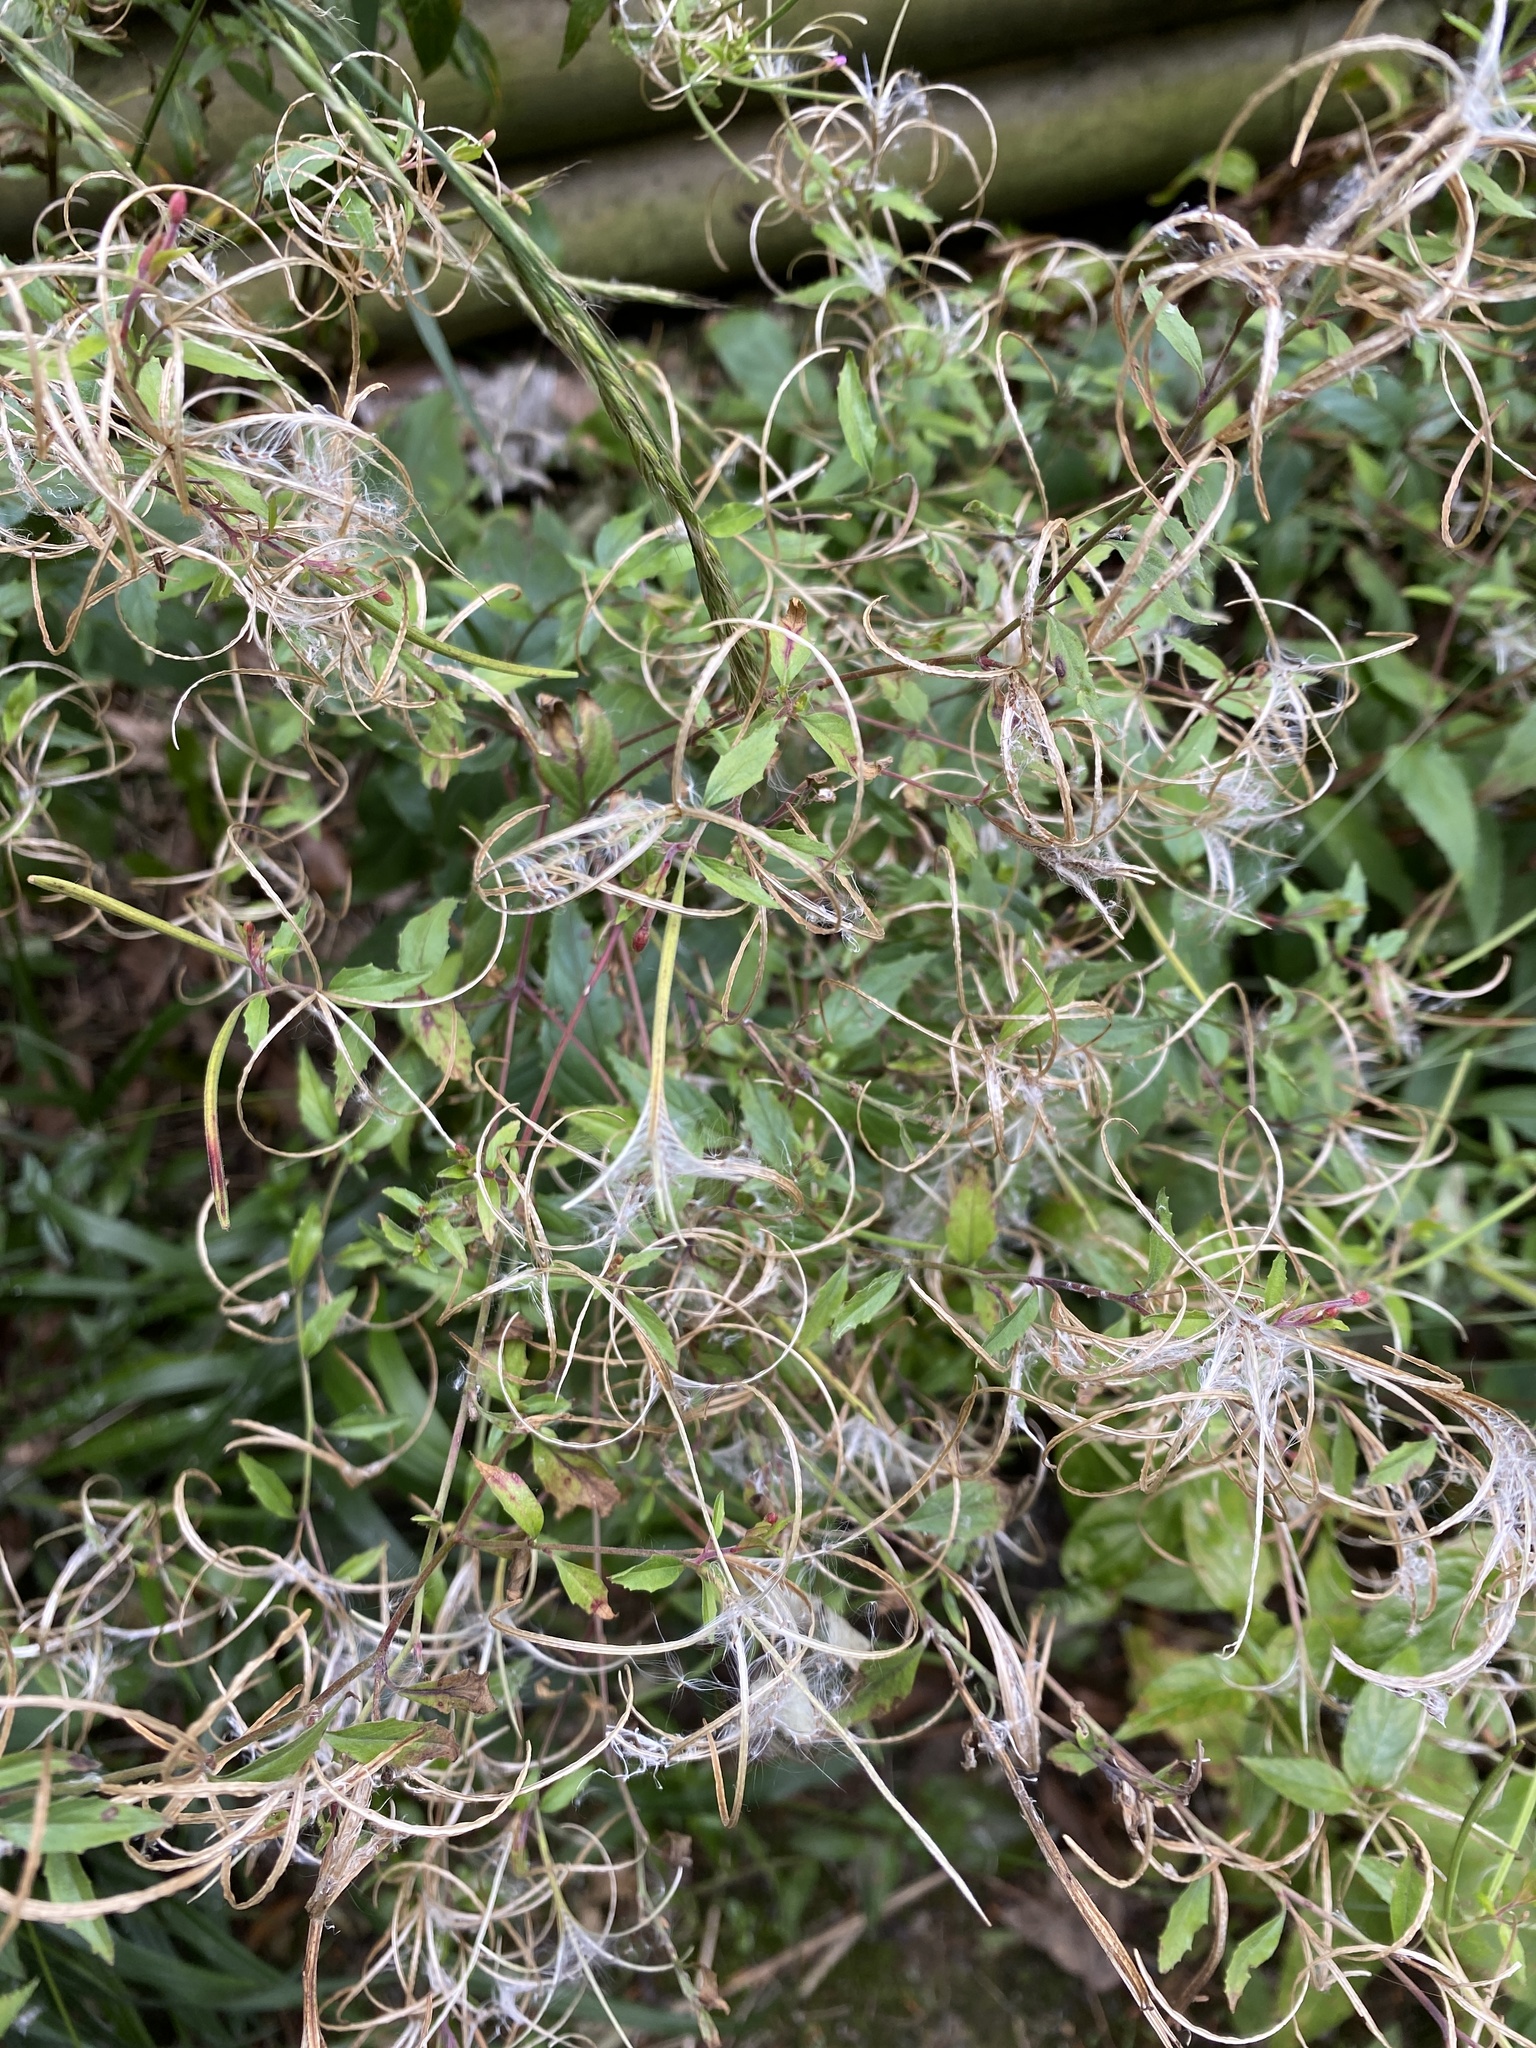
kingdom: Plantae
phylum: Tracheophyta
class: Magnoliopsida
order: Myrtales
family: Onagraceae
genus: Epilobium
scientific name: Epilobium hirsutum
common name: Great willowherb
